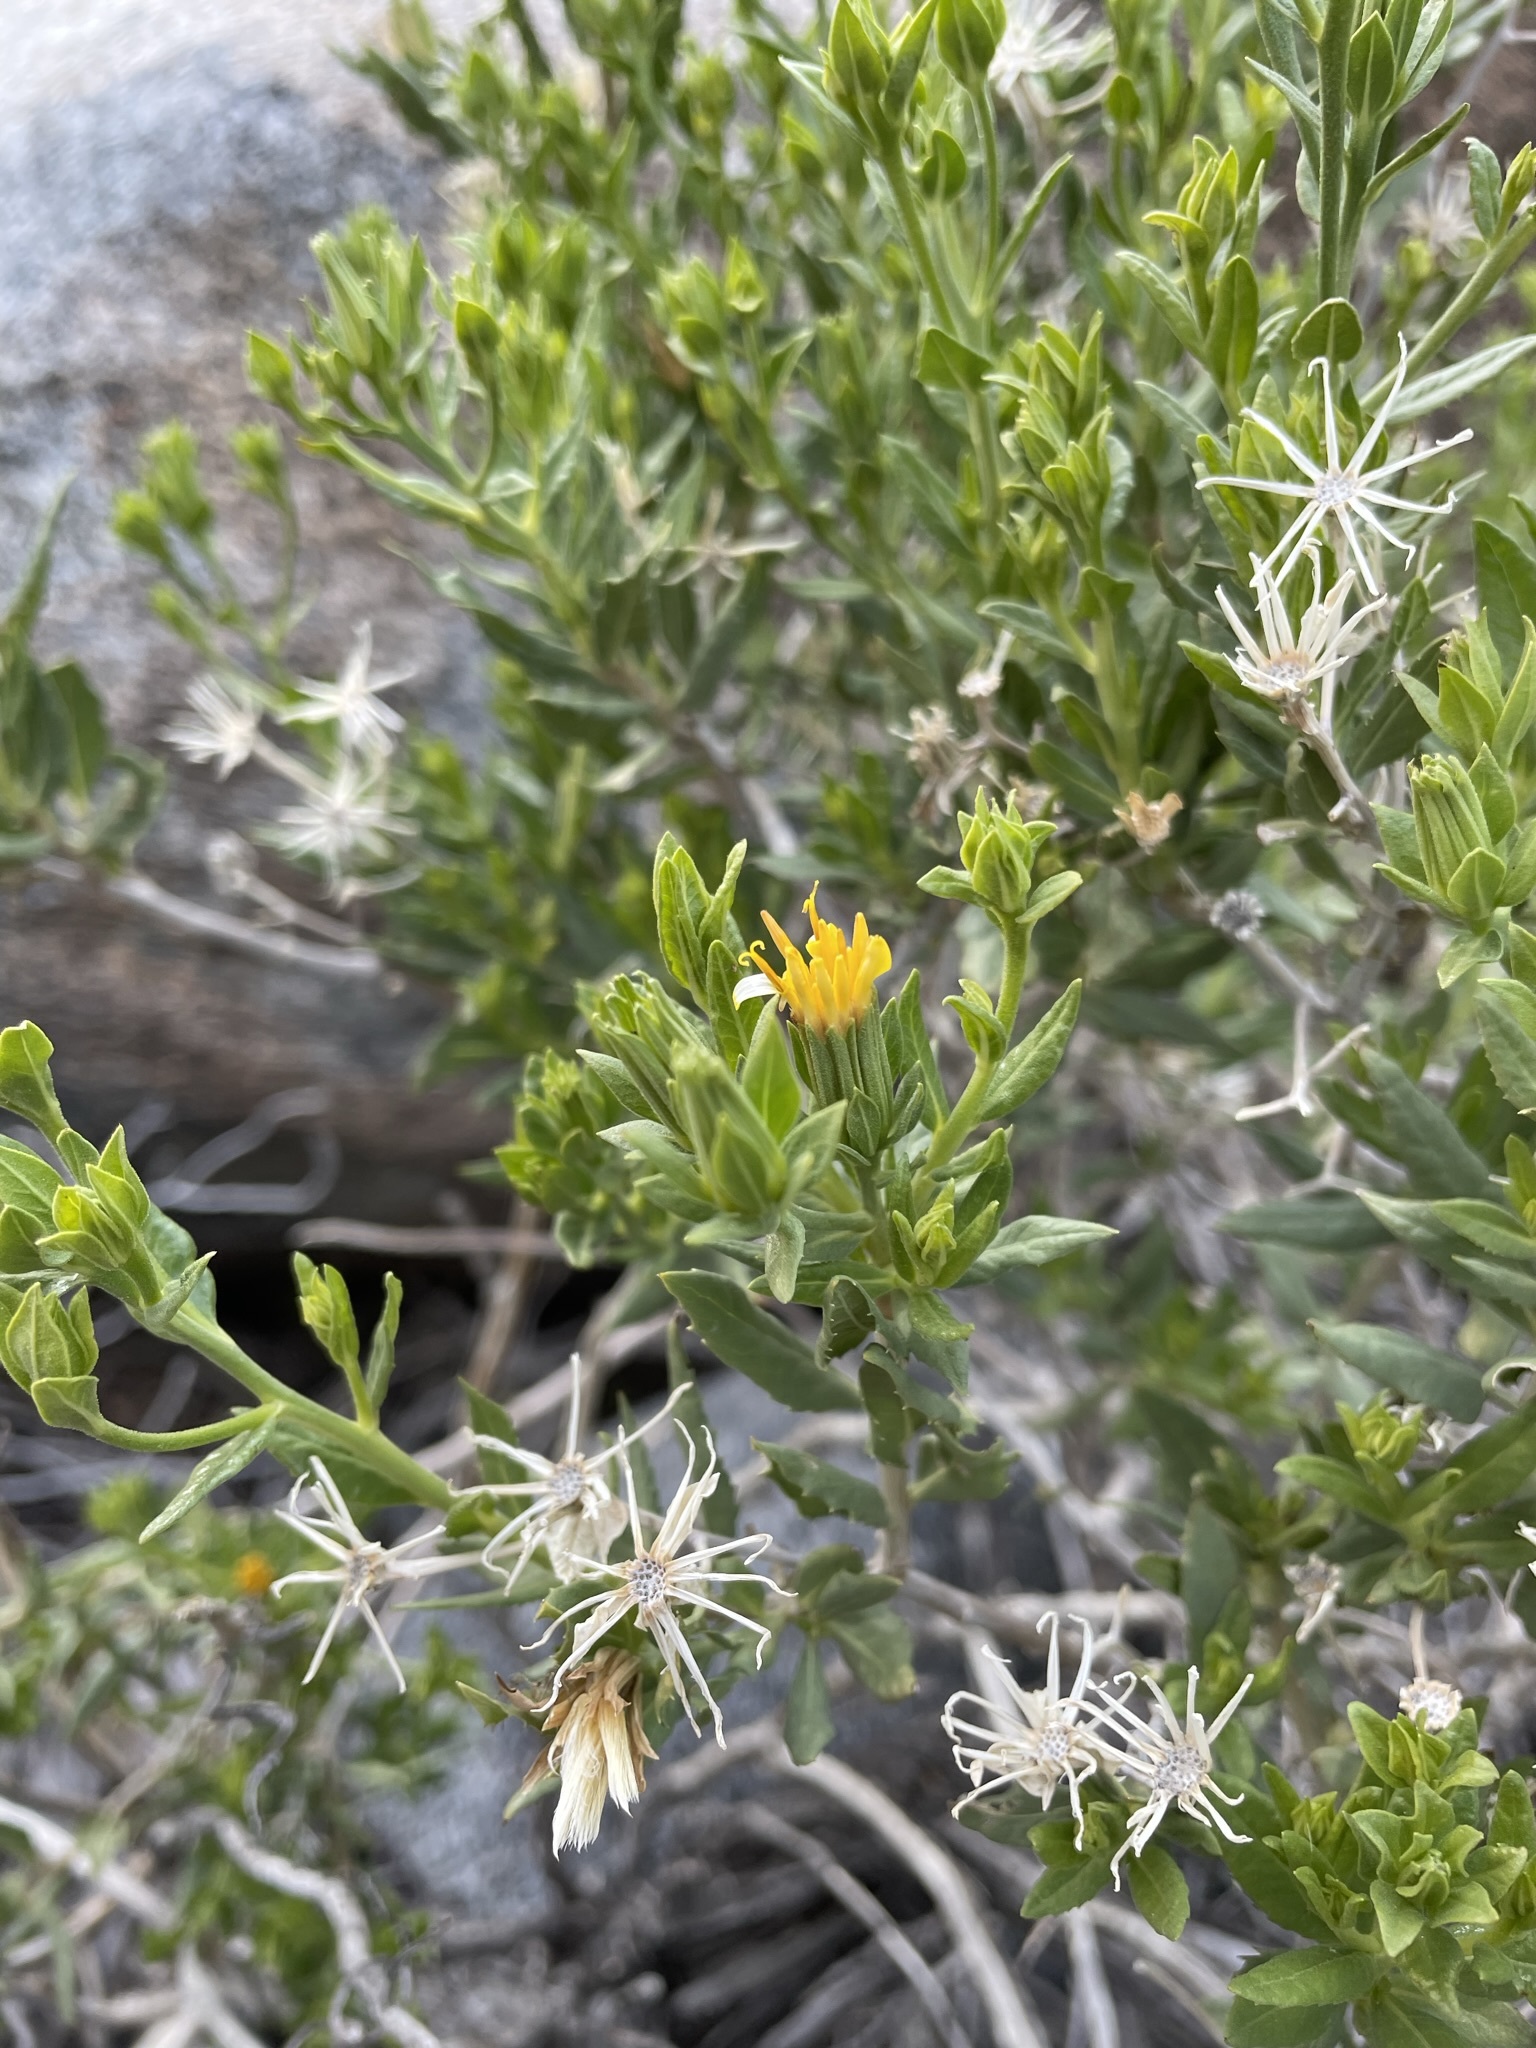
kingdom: Plantae
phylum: Tracheophyta
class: Magnoliopsida
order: Asterales
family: Asteraceae
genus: Trixis
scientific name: Trixis californica
